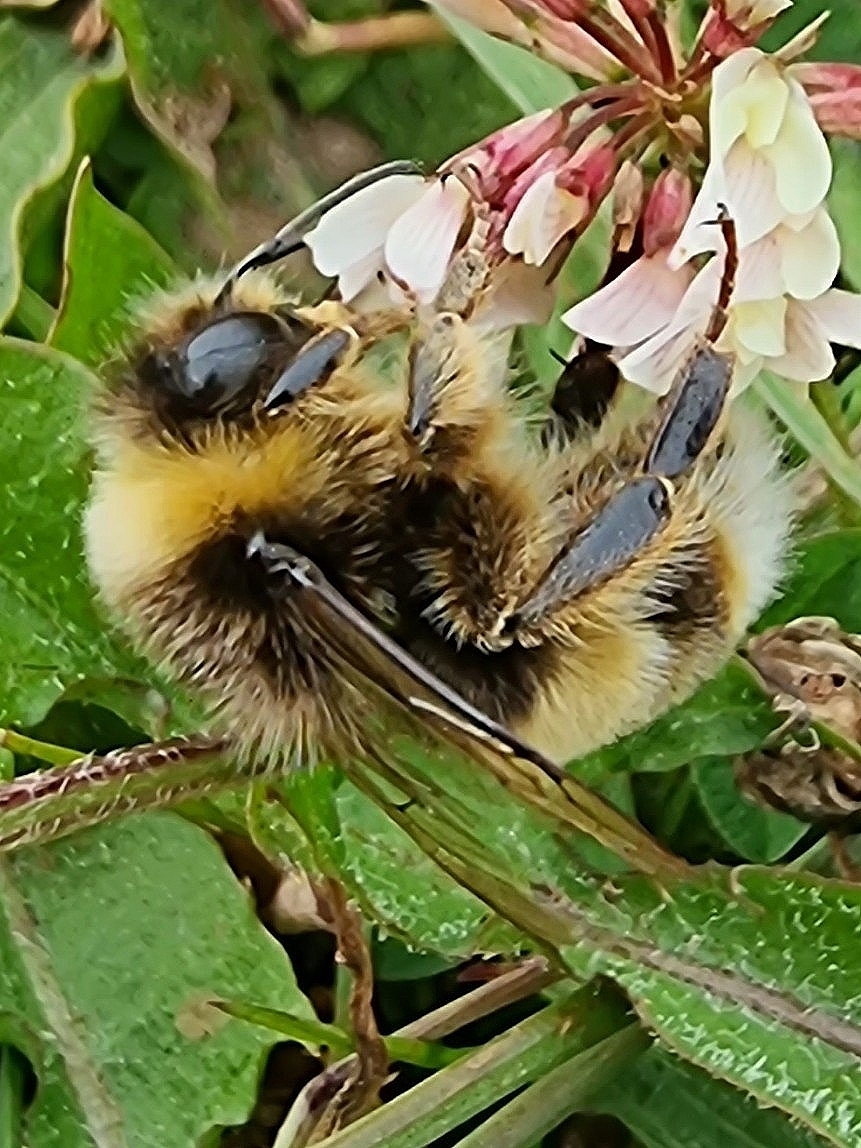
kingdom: Animalia
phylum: Arthropoda
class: Insecta
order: Hymenoptera
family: Apidae
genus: Bombus
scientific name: Bombus terrestris
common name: Buff-tailed bumblebee
